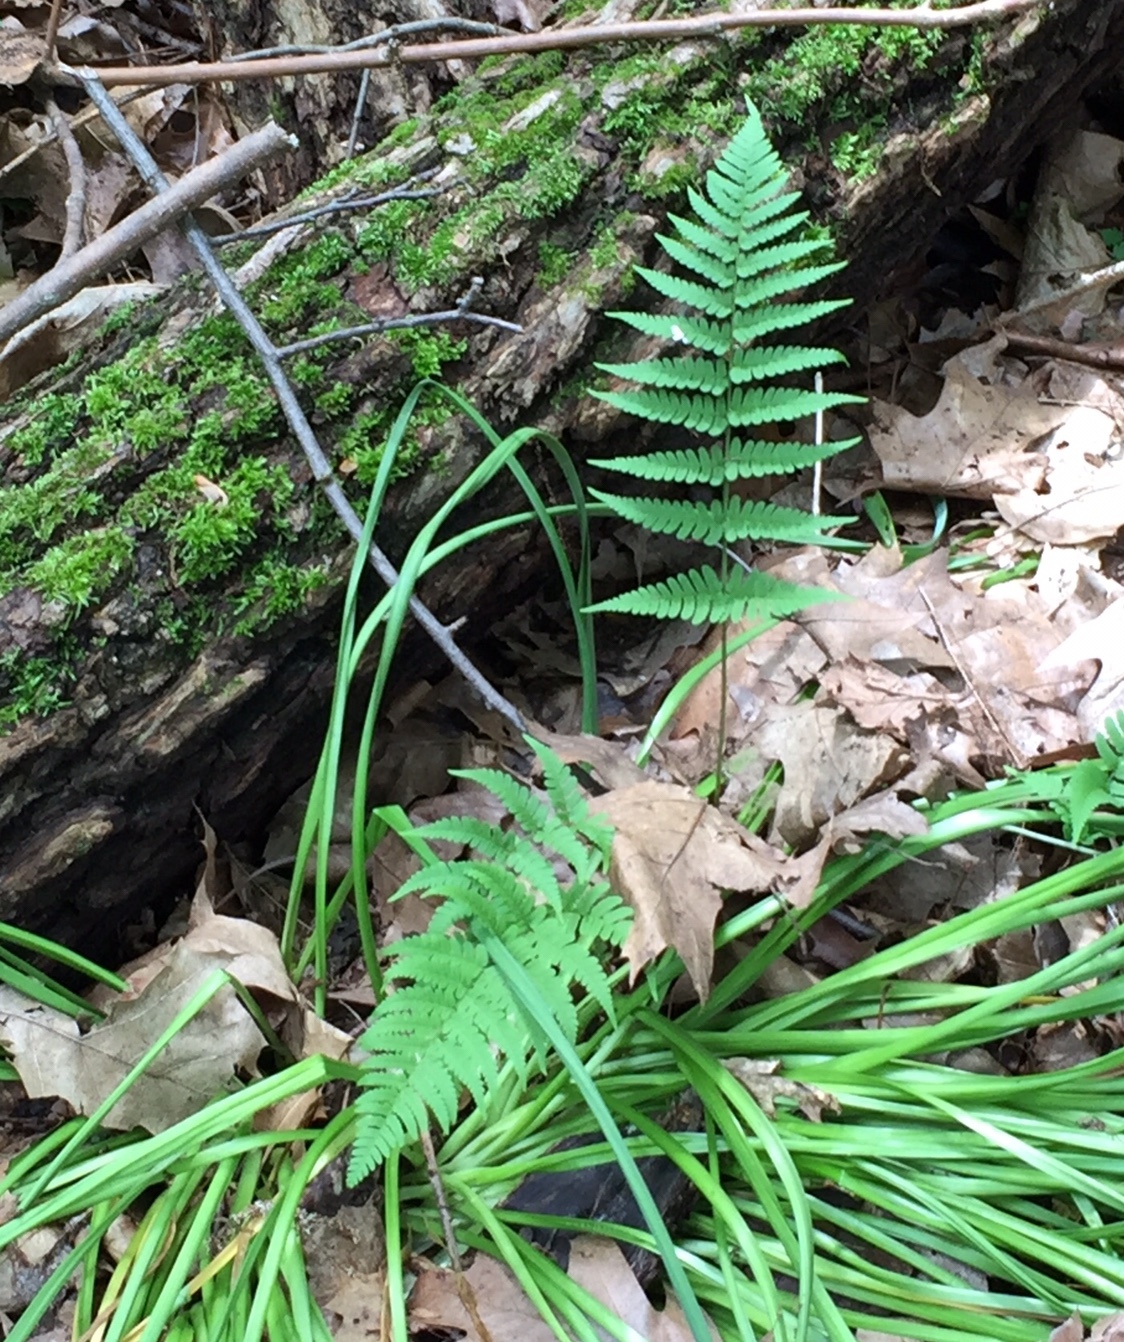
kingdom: Plantae
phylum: Tracheophyta
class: Polypodiopsida
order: Polypodiales
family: Dryopteridaceae
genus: Dryopteris
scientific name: Dryopteris marginalis
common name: Marginal wood fern
